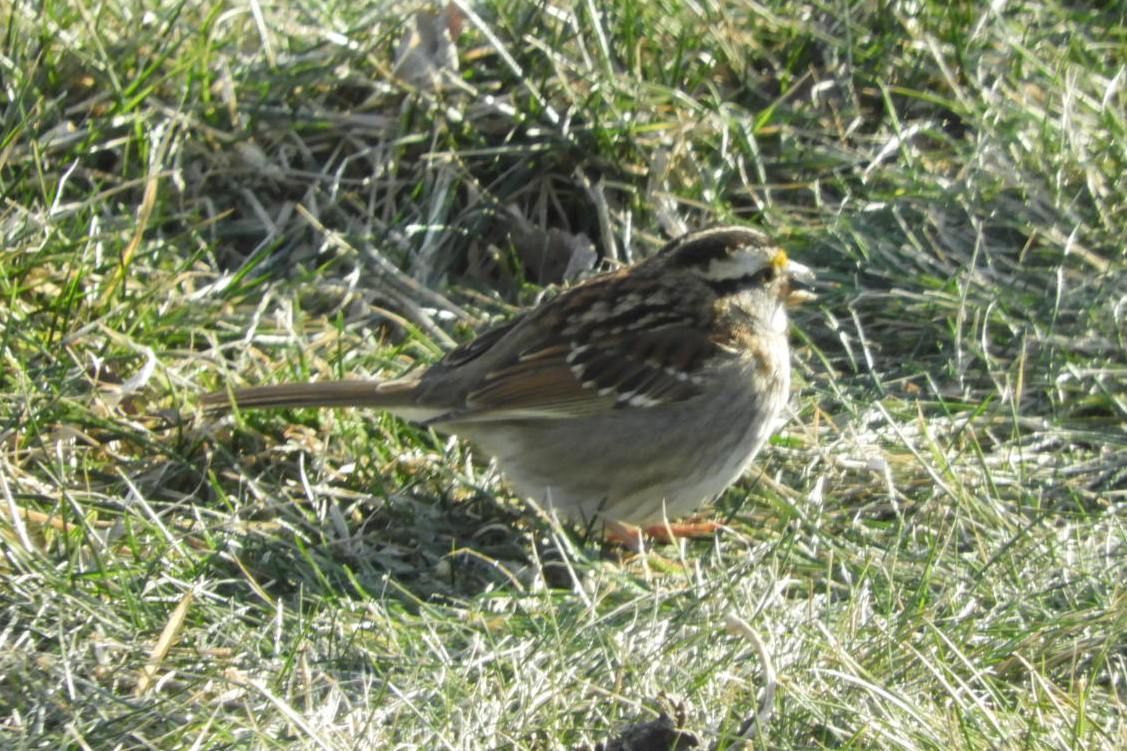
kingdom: Animalia
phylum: Chordata
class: Aves
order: Passeriformes
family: Passerellidae
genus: Zonotrichia
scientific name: Zonotrichia albicollis
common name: White-throated sparrow
